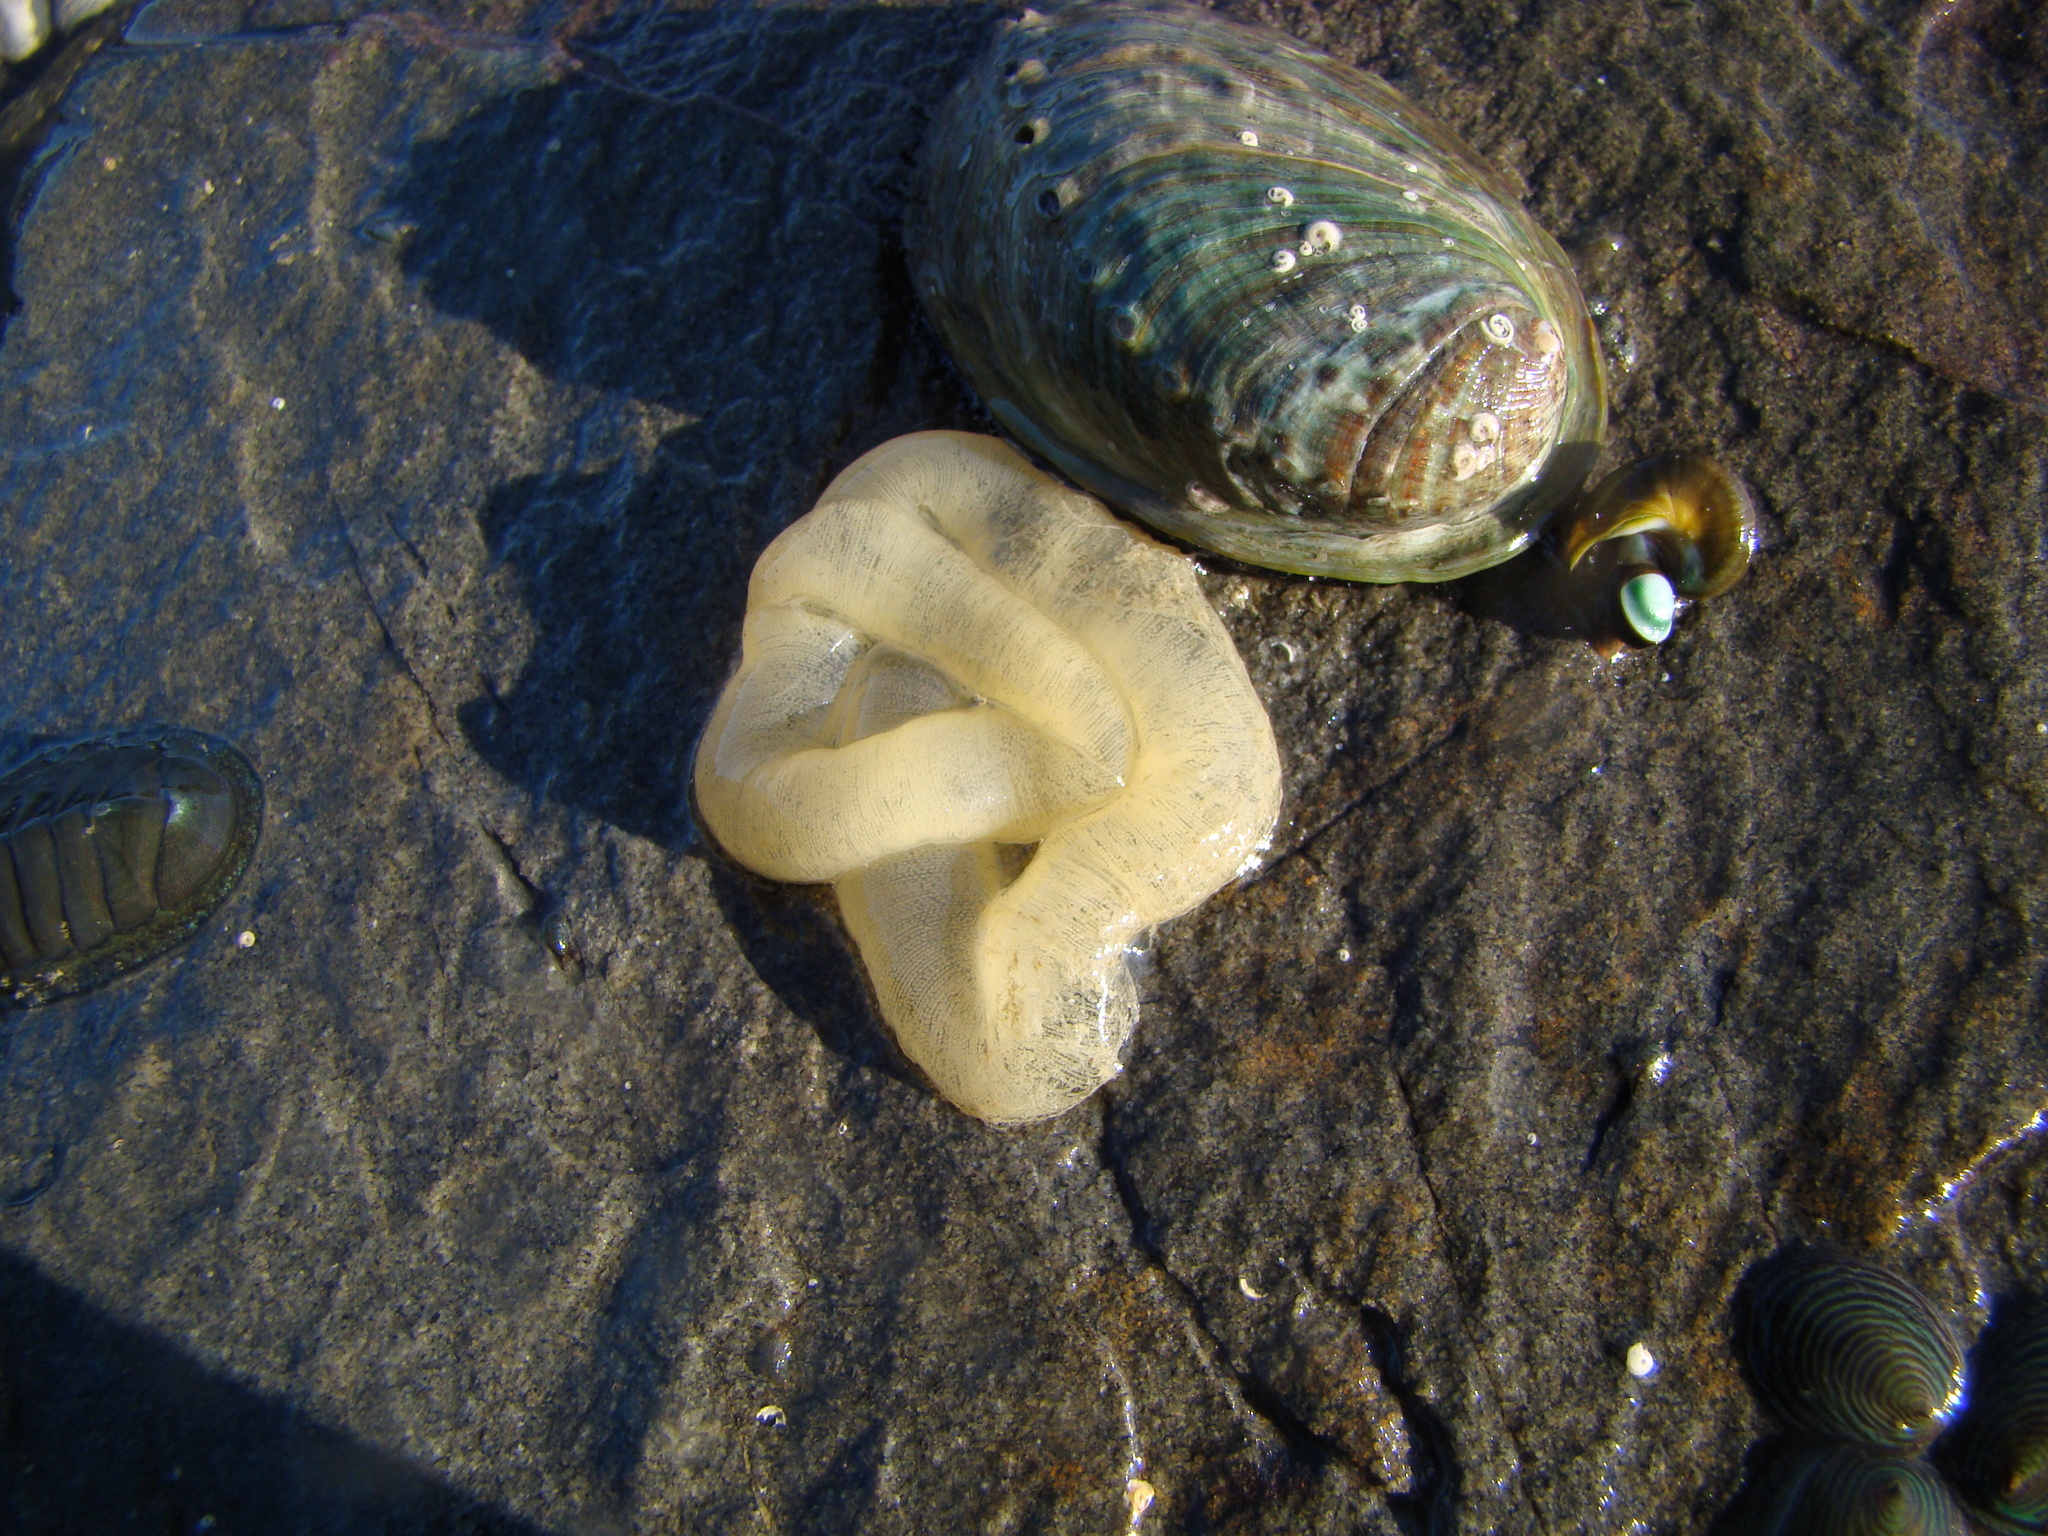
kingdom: Animalia
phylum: Mollusca
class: Gastropoda
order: Pleurobranchida
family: Pleurobranchaeidae
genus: Pleurobranchaea
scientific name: Pleurobranchaea maculata
